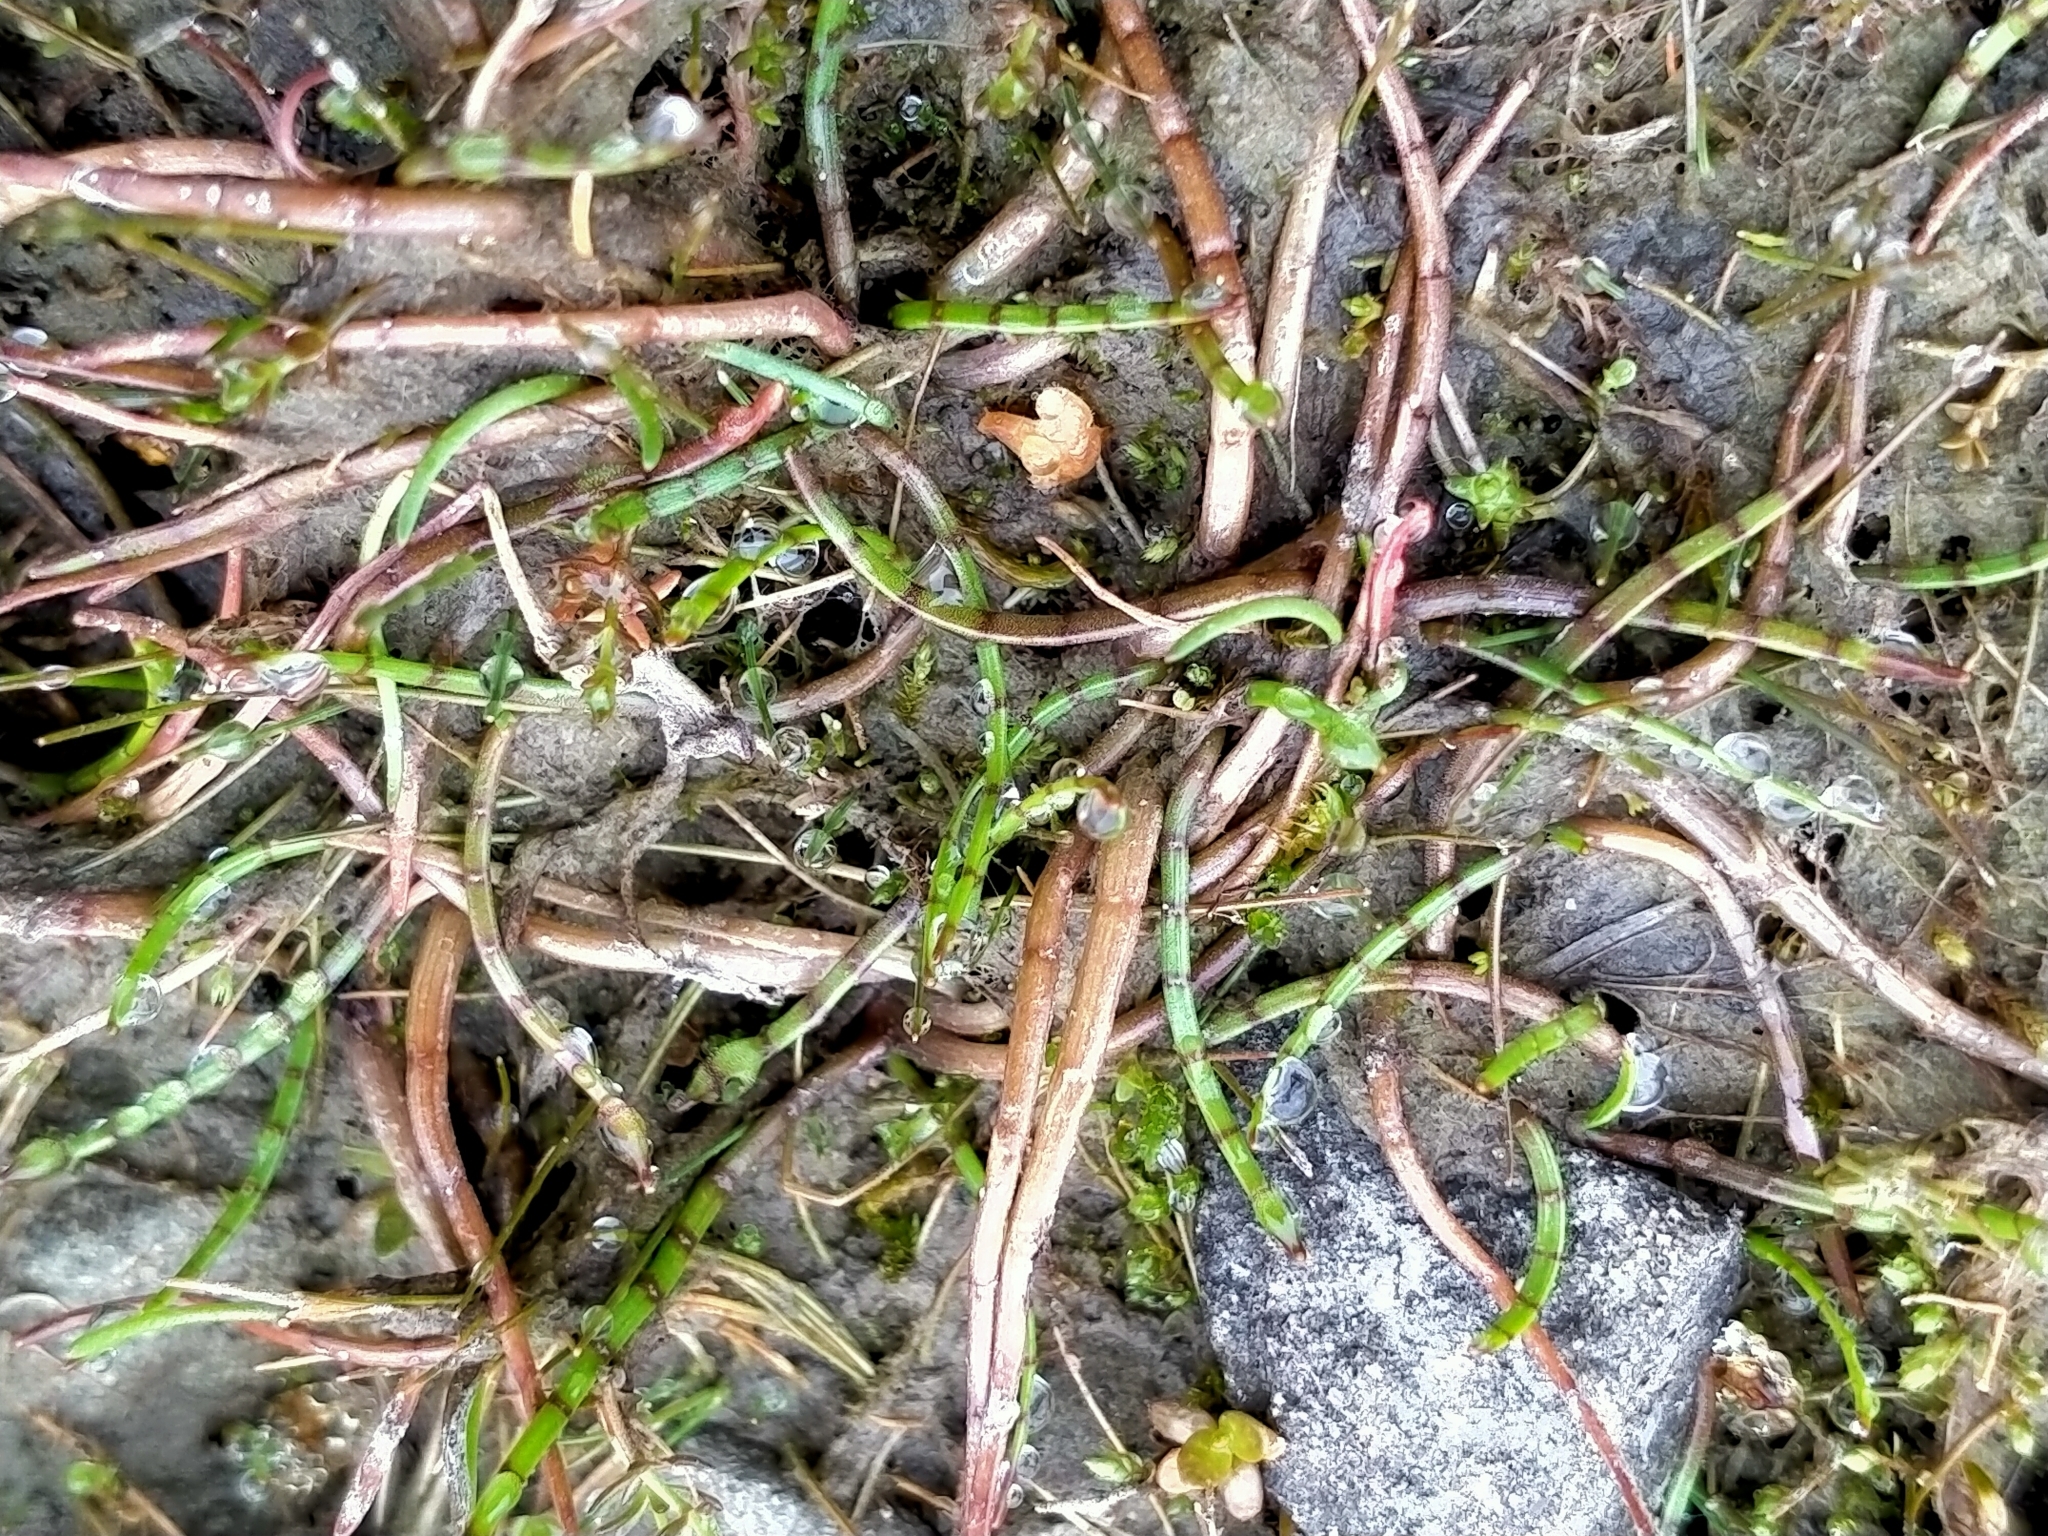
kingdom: Plantae
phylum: Tracheophyta
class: Magnoliopsida
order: Apiales
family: Apiaceae
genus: Lilaeopsis
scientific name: Lilaeopsis novae-zelandiae
